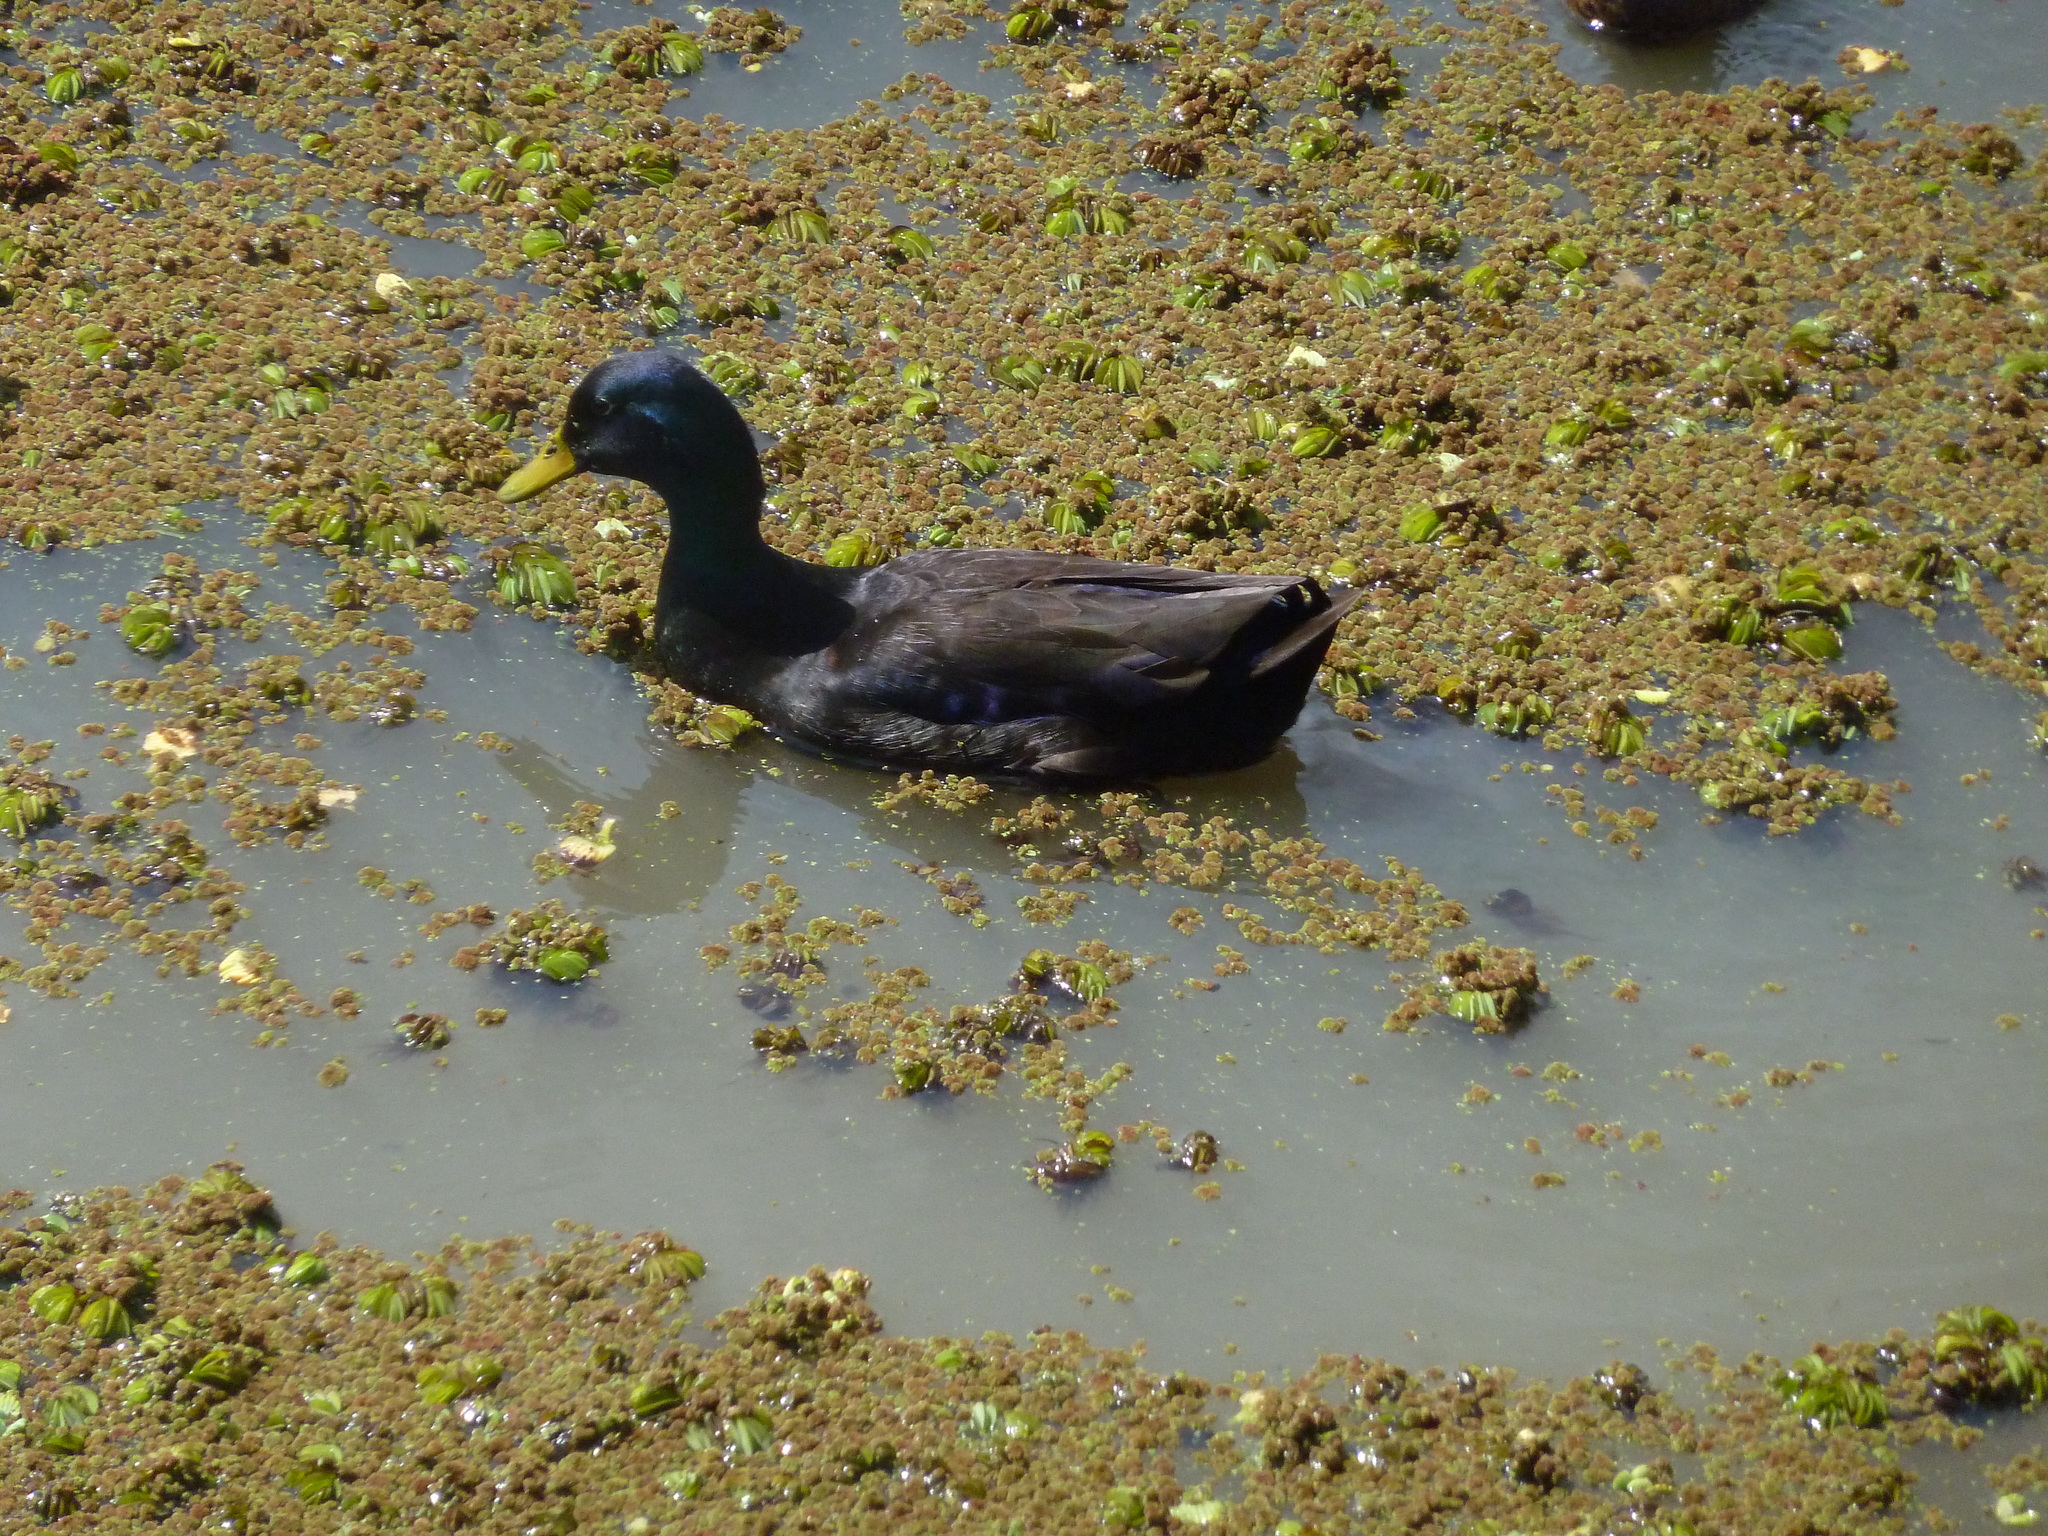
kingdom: Animalia
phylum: Chordata
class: Aves
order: Anseriformes
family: Anatidae
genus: Anas
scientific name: Anas platyrhynchos
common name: Mallard
